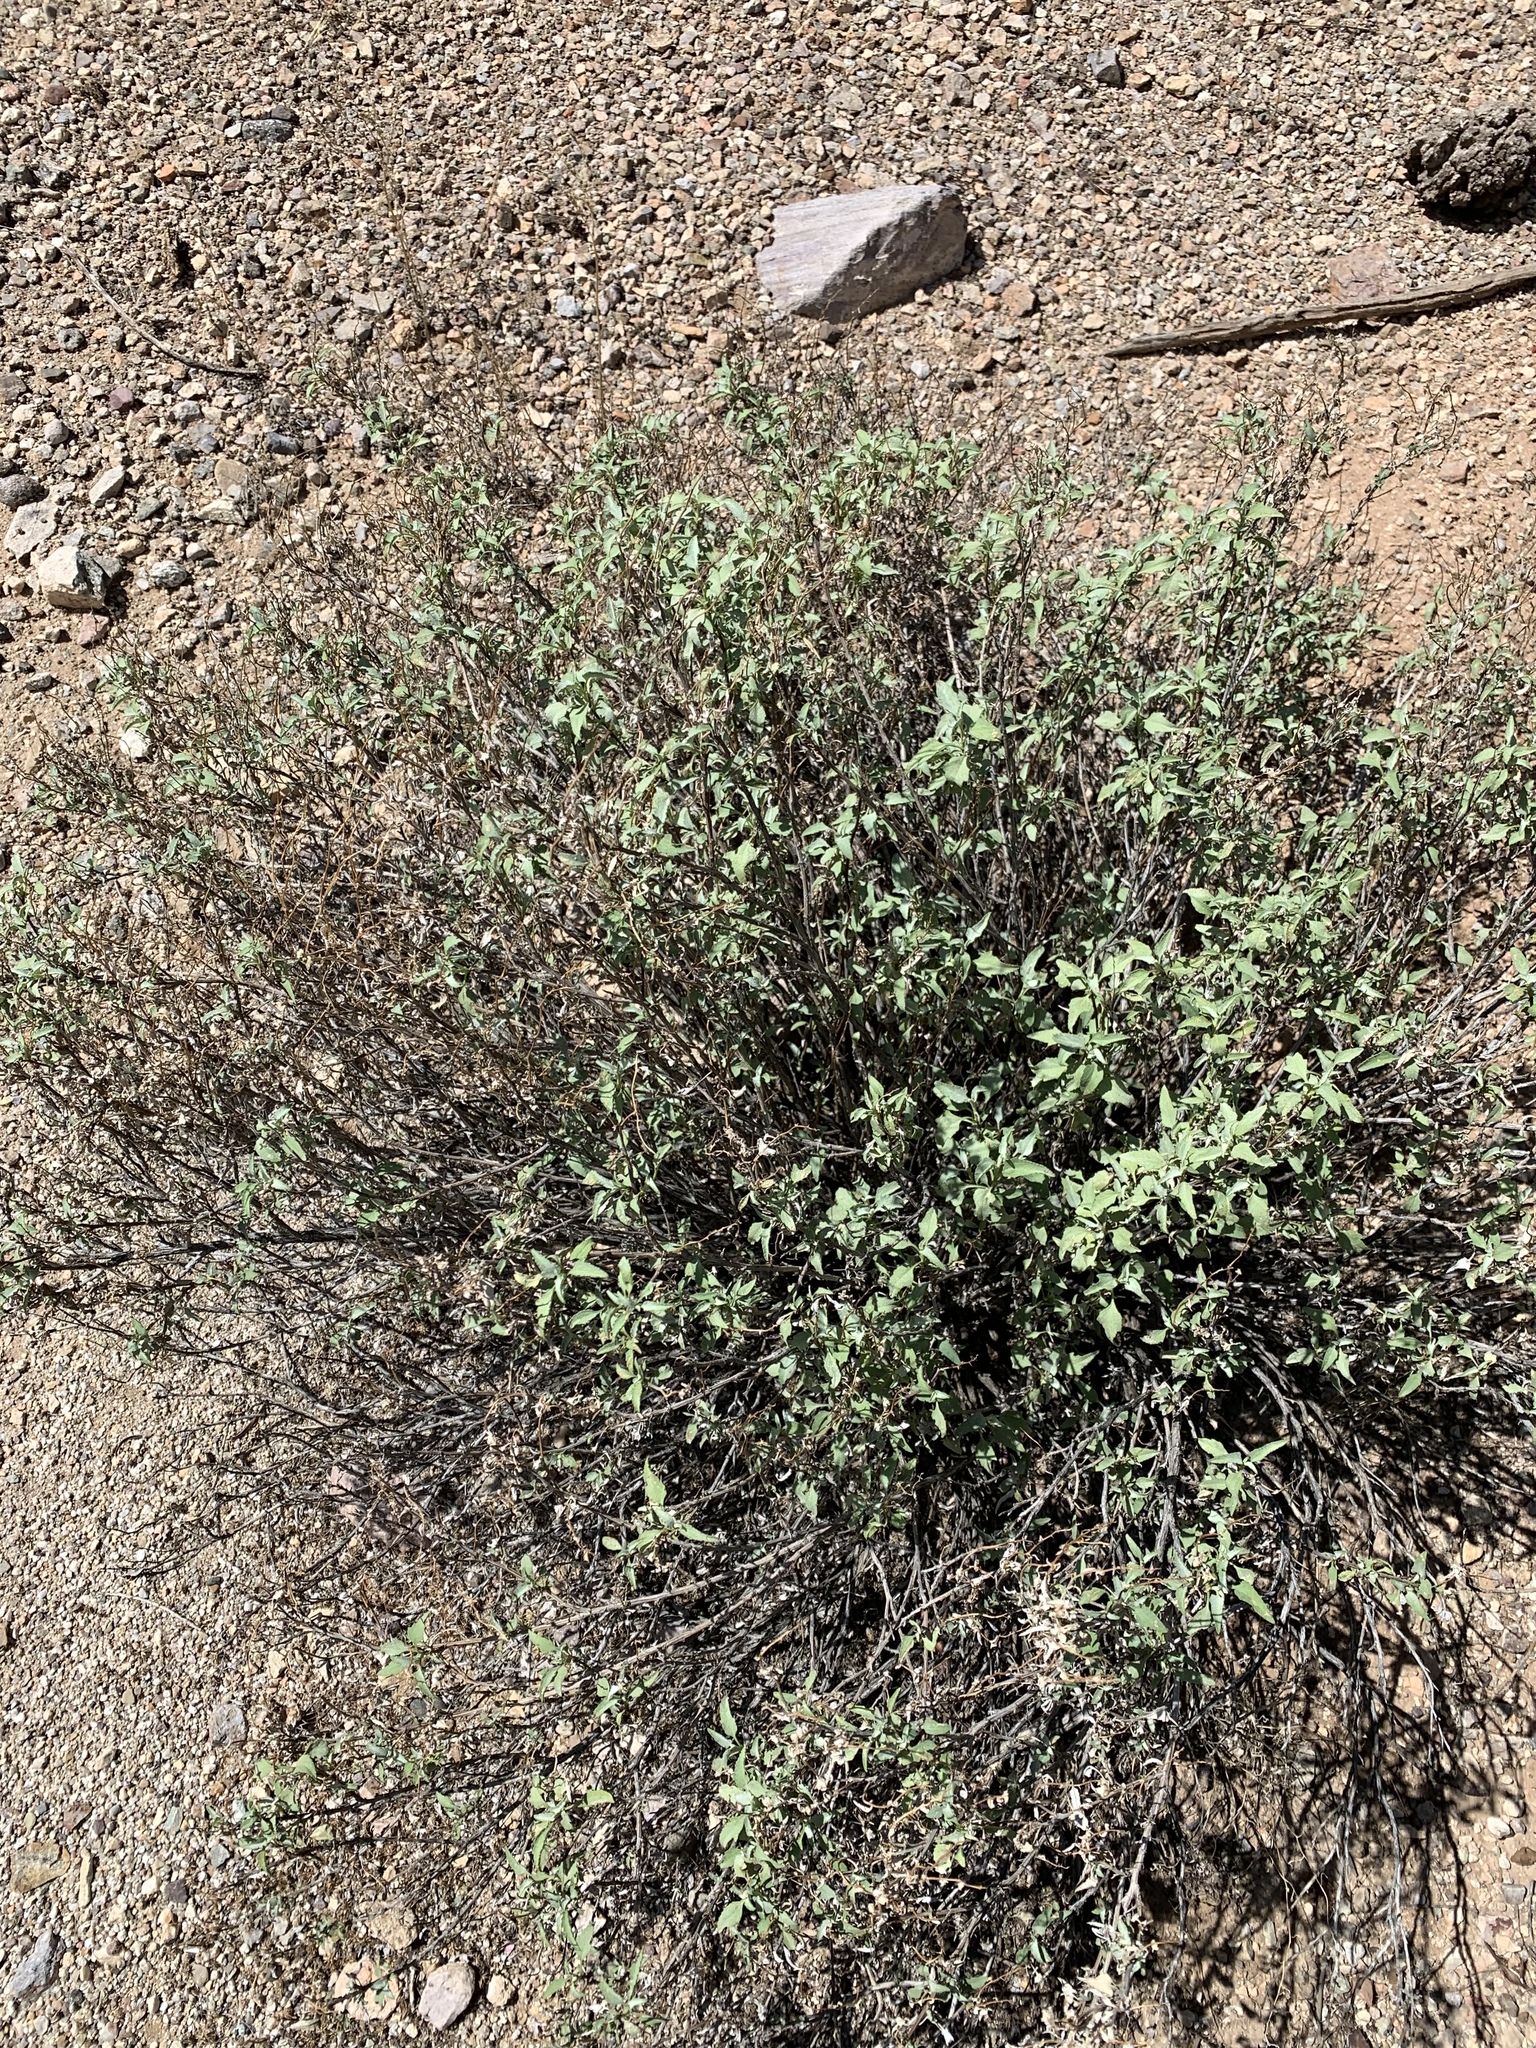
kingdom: Plantae
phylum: Tracheophyta
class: Magnoliopsida
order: Asterales
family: Asteraceae
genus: Ambrosia
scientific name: Ambrosia deltoidea
